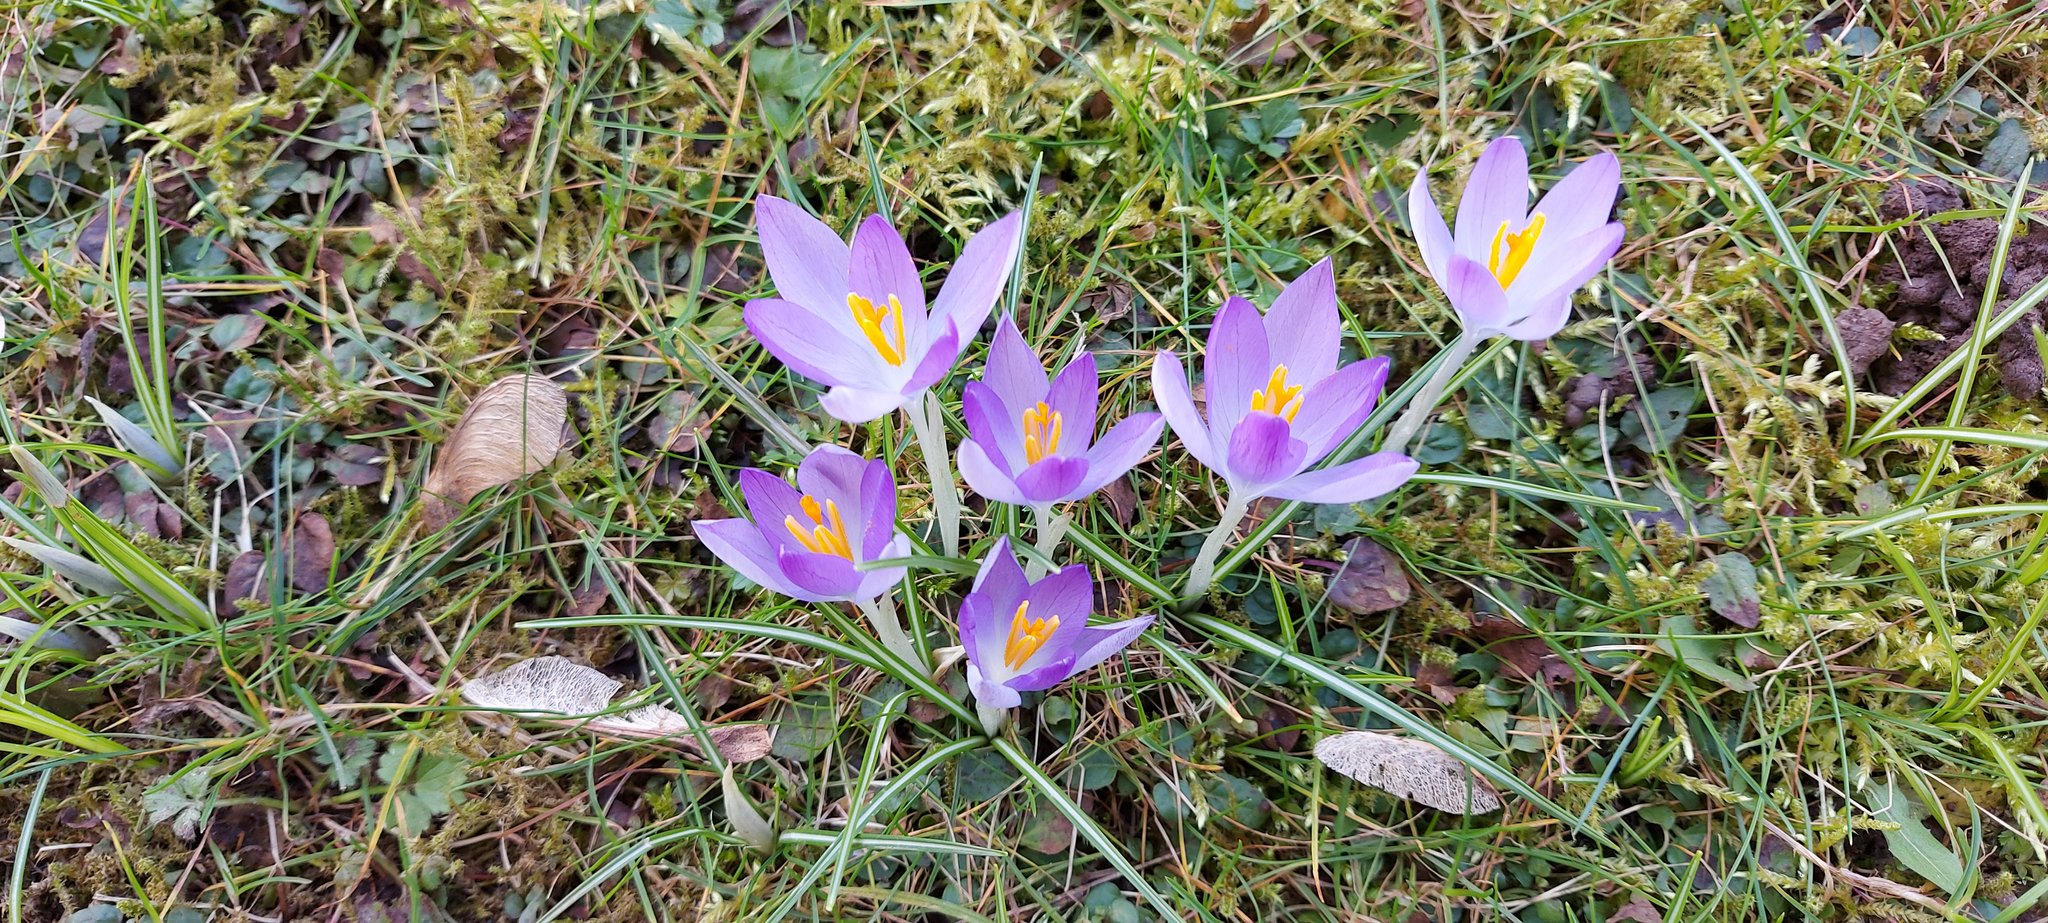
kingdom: Plantae
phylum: Tracheophyta
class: Liliopsida
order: Asparagales
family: Iridaceae
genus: Crocus
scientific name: Crocus tommasinianus
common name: Early crocus
